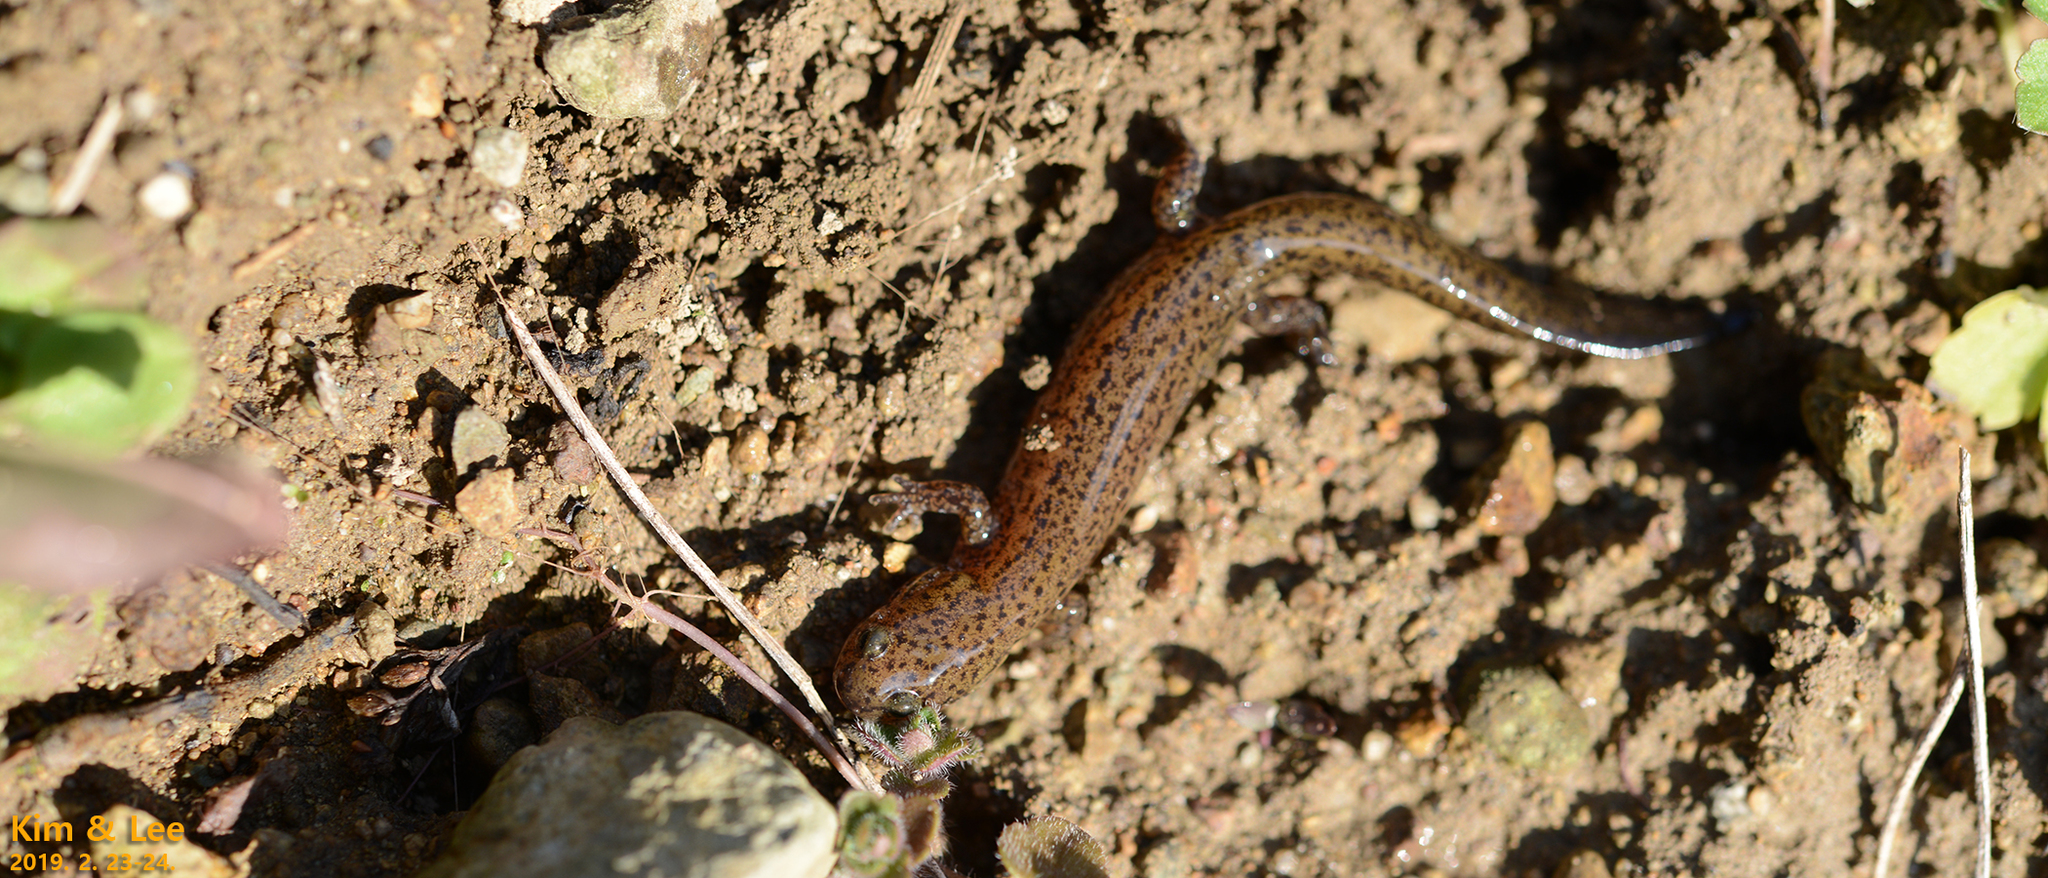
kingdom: Animalia
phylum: Chordata
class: Amphibia
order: Caudata
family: Hynobiidae
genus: Hynobius
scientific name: Hynobius unisacculus
